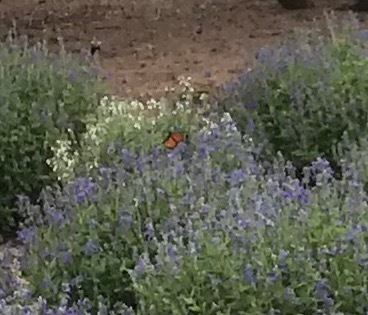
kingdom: Animalia
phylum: Arthropoda
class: Insecta
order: Lepidoptera
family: Nymphalidae
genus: Danaus
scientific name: Danaus plexippus
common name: Monarch
